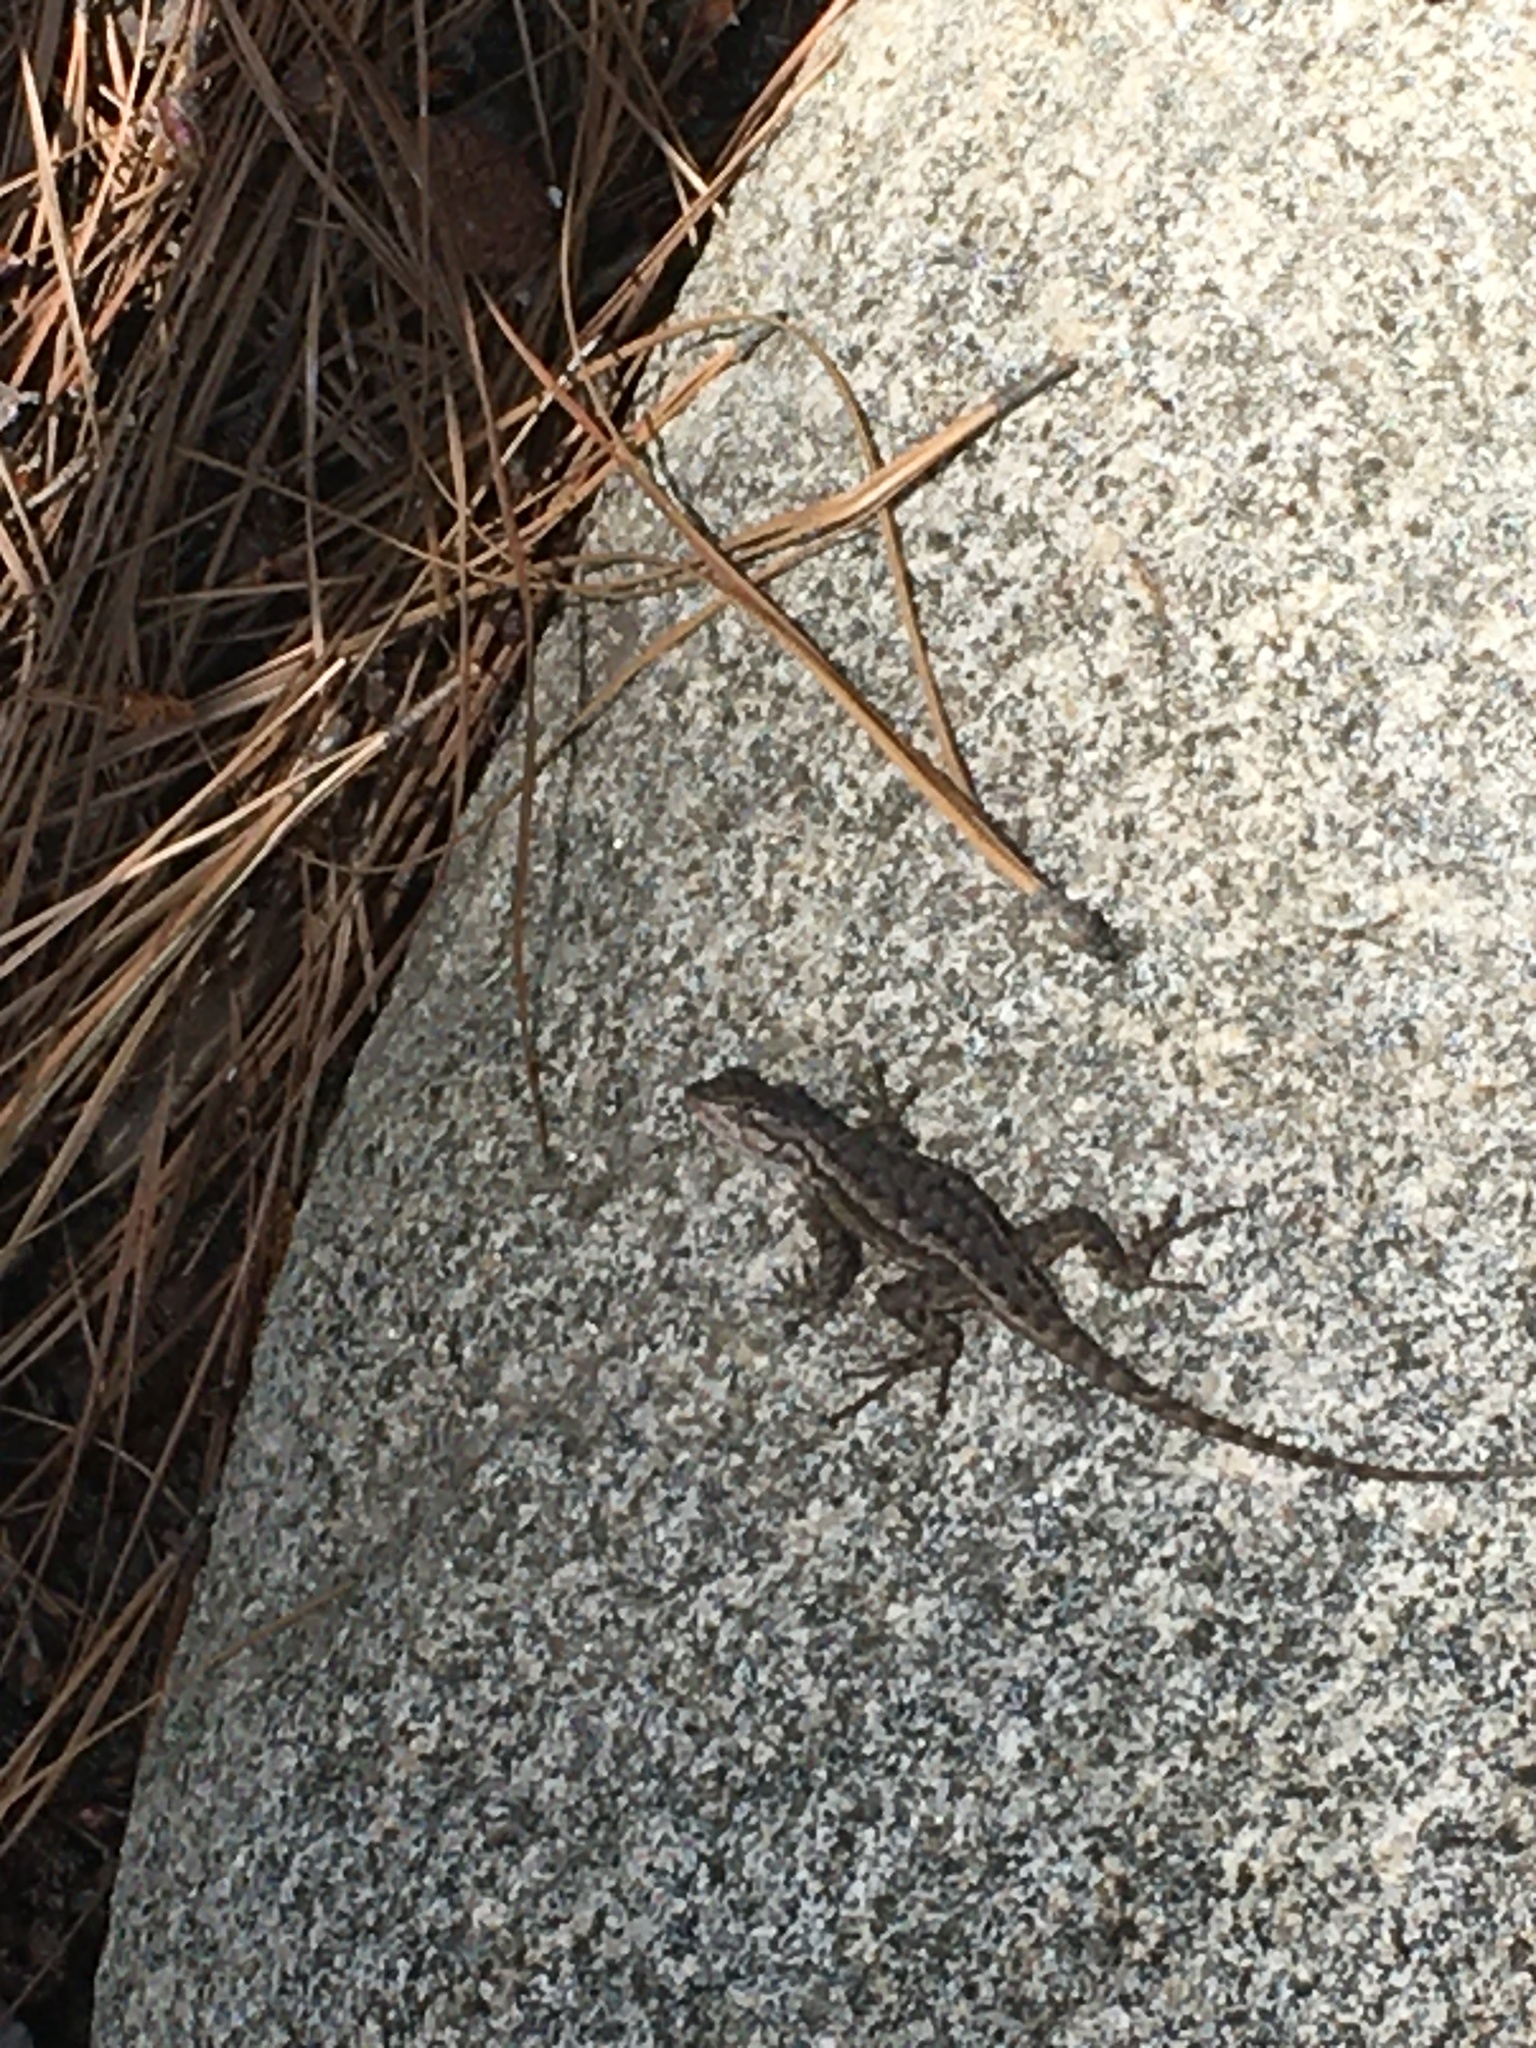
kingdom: Animalia
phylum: Chordata
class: Squamata
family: Phrynosomatidae
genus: Sceloporus
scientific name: Sceloporus occidentalis
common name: Western fence lizard
